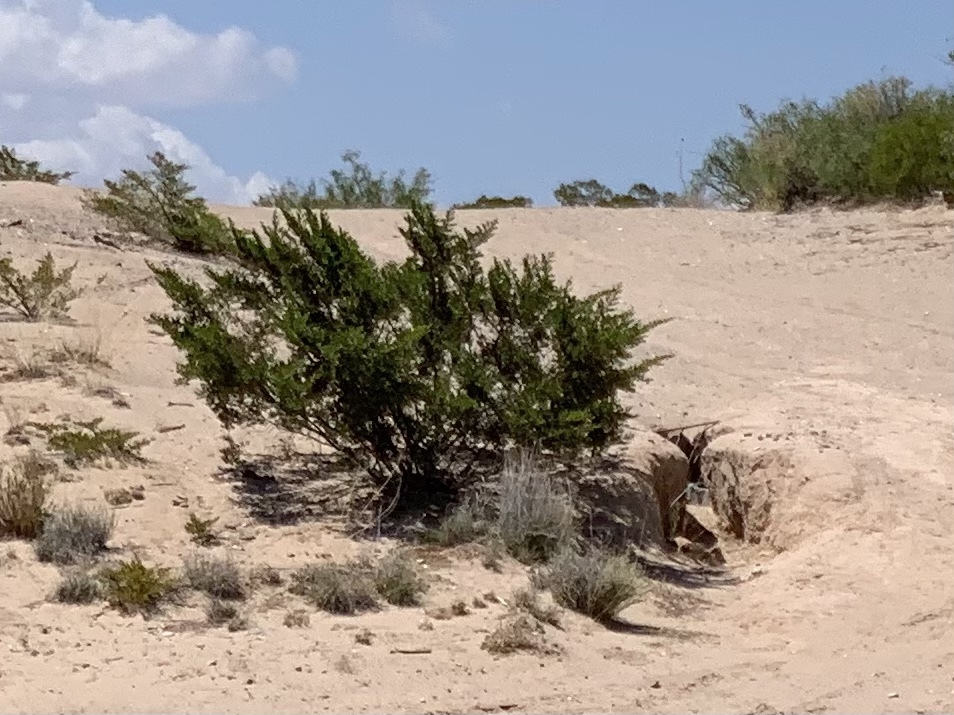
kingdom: Plantae
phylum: Tracheophyta
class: Magnoliopsida
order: Zygophyllales
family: Zygophyllaceae
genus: Larrea
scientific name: Larrea tridentata
